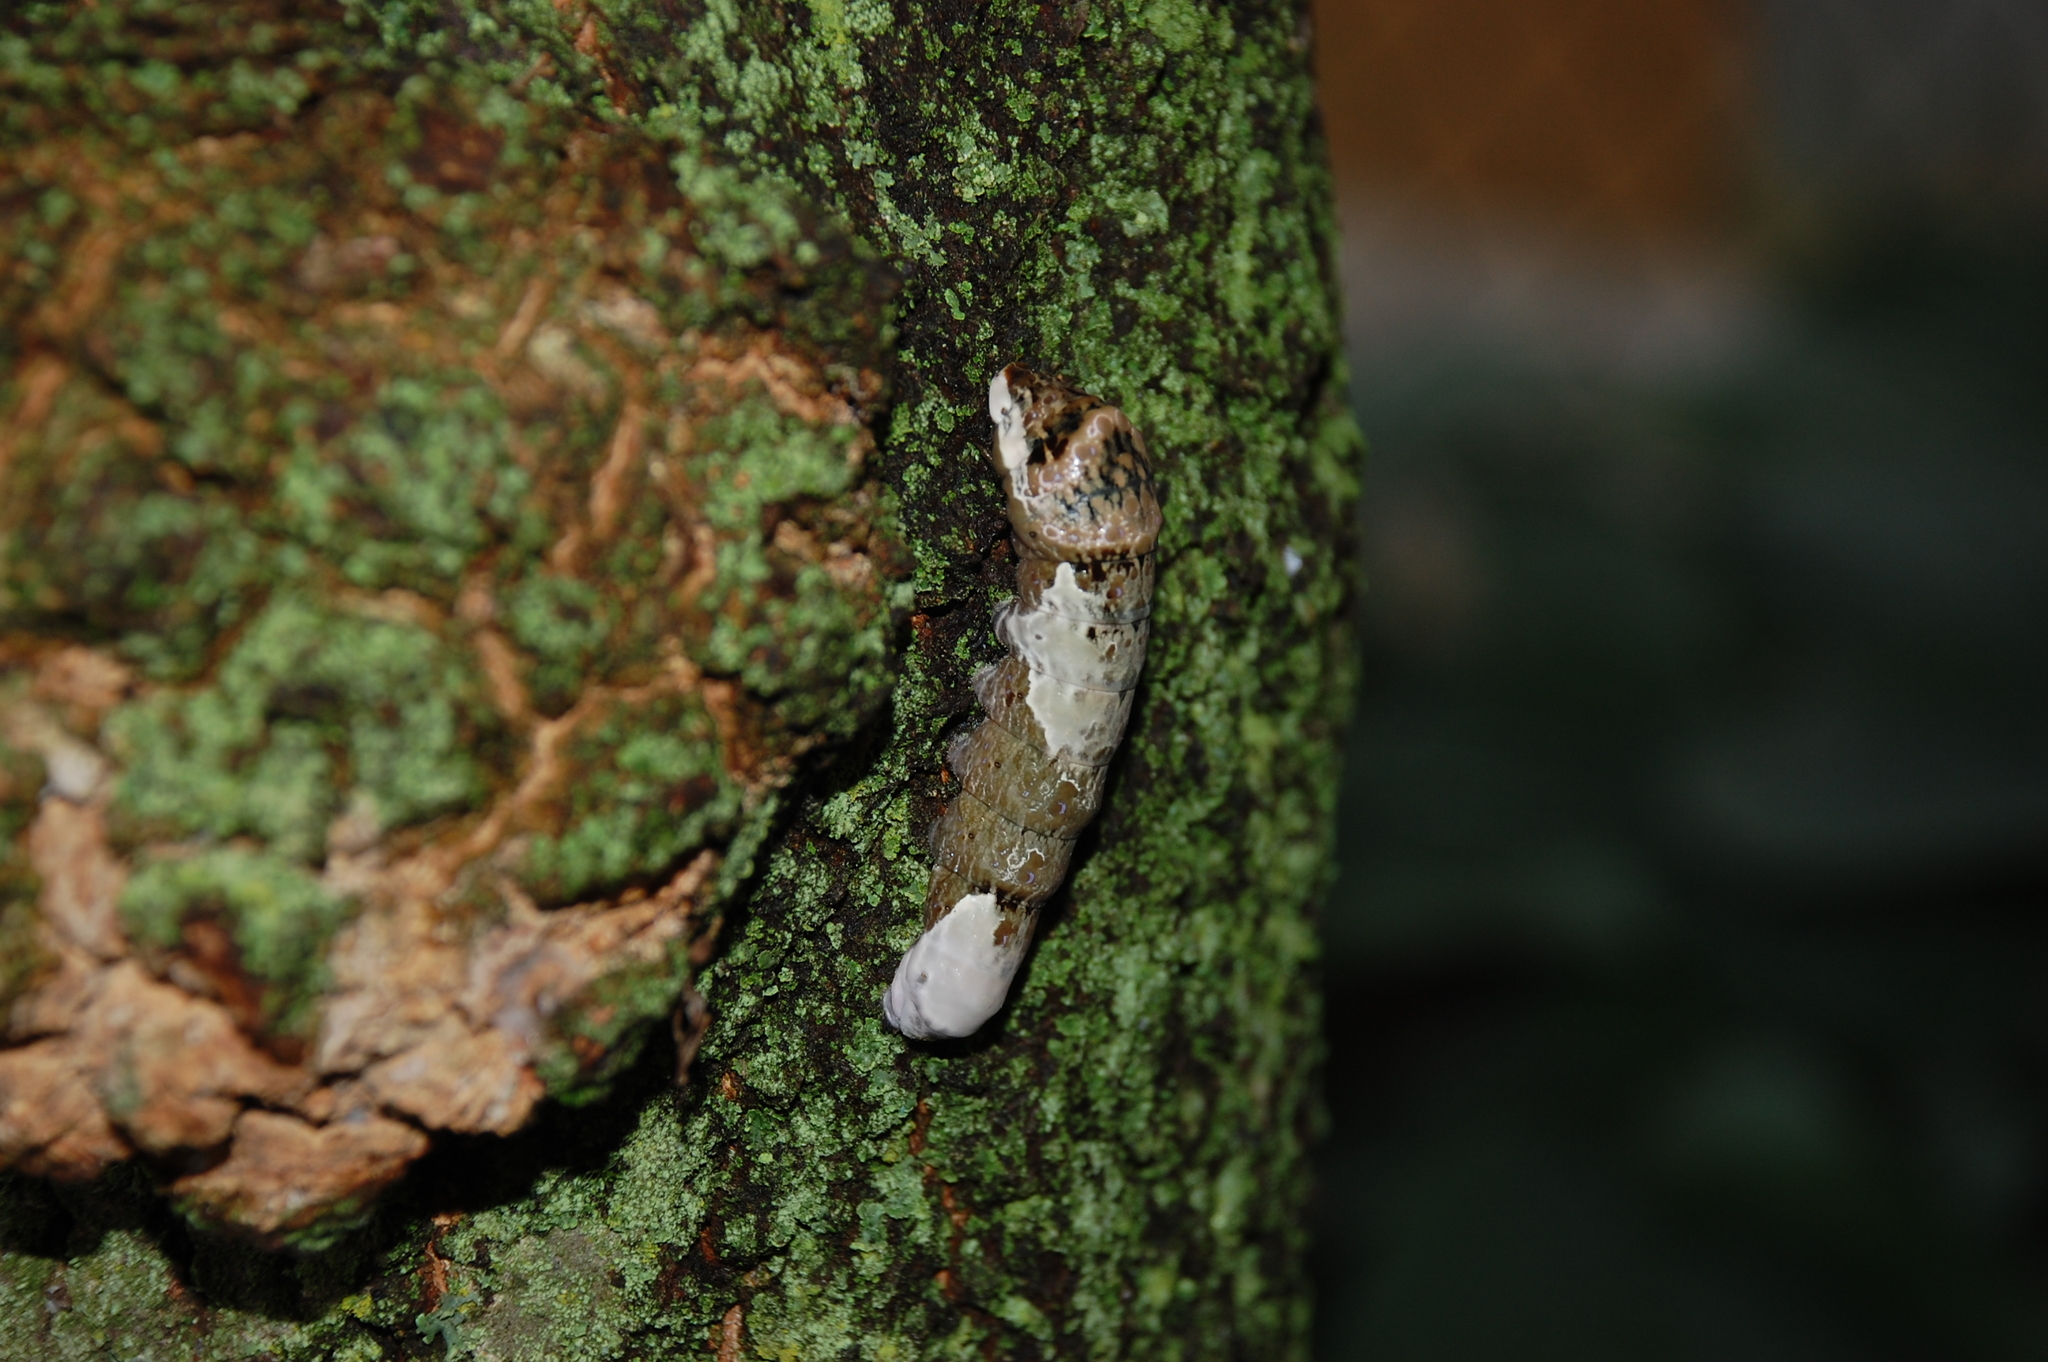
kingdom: Animalia
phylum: Arthropoda
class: Insecta
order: Lepidoptera
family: Papilionidae
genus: Papilio
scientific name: Papilio cresphontes
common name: Giant swallowtail
